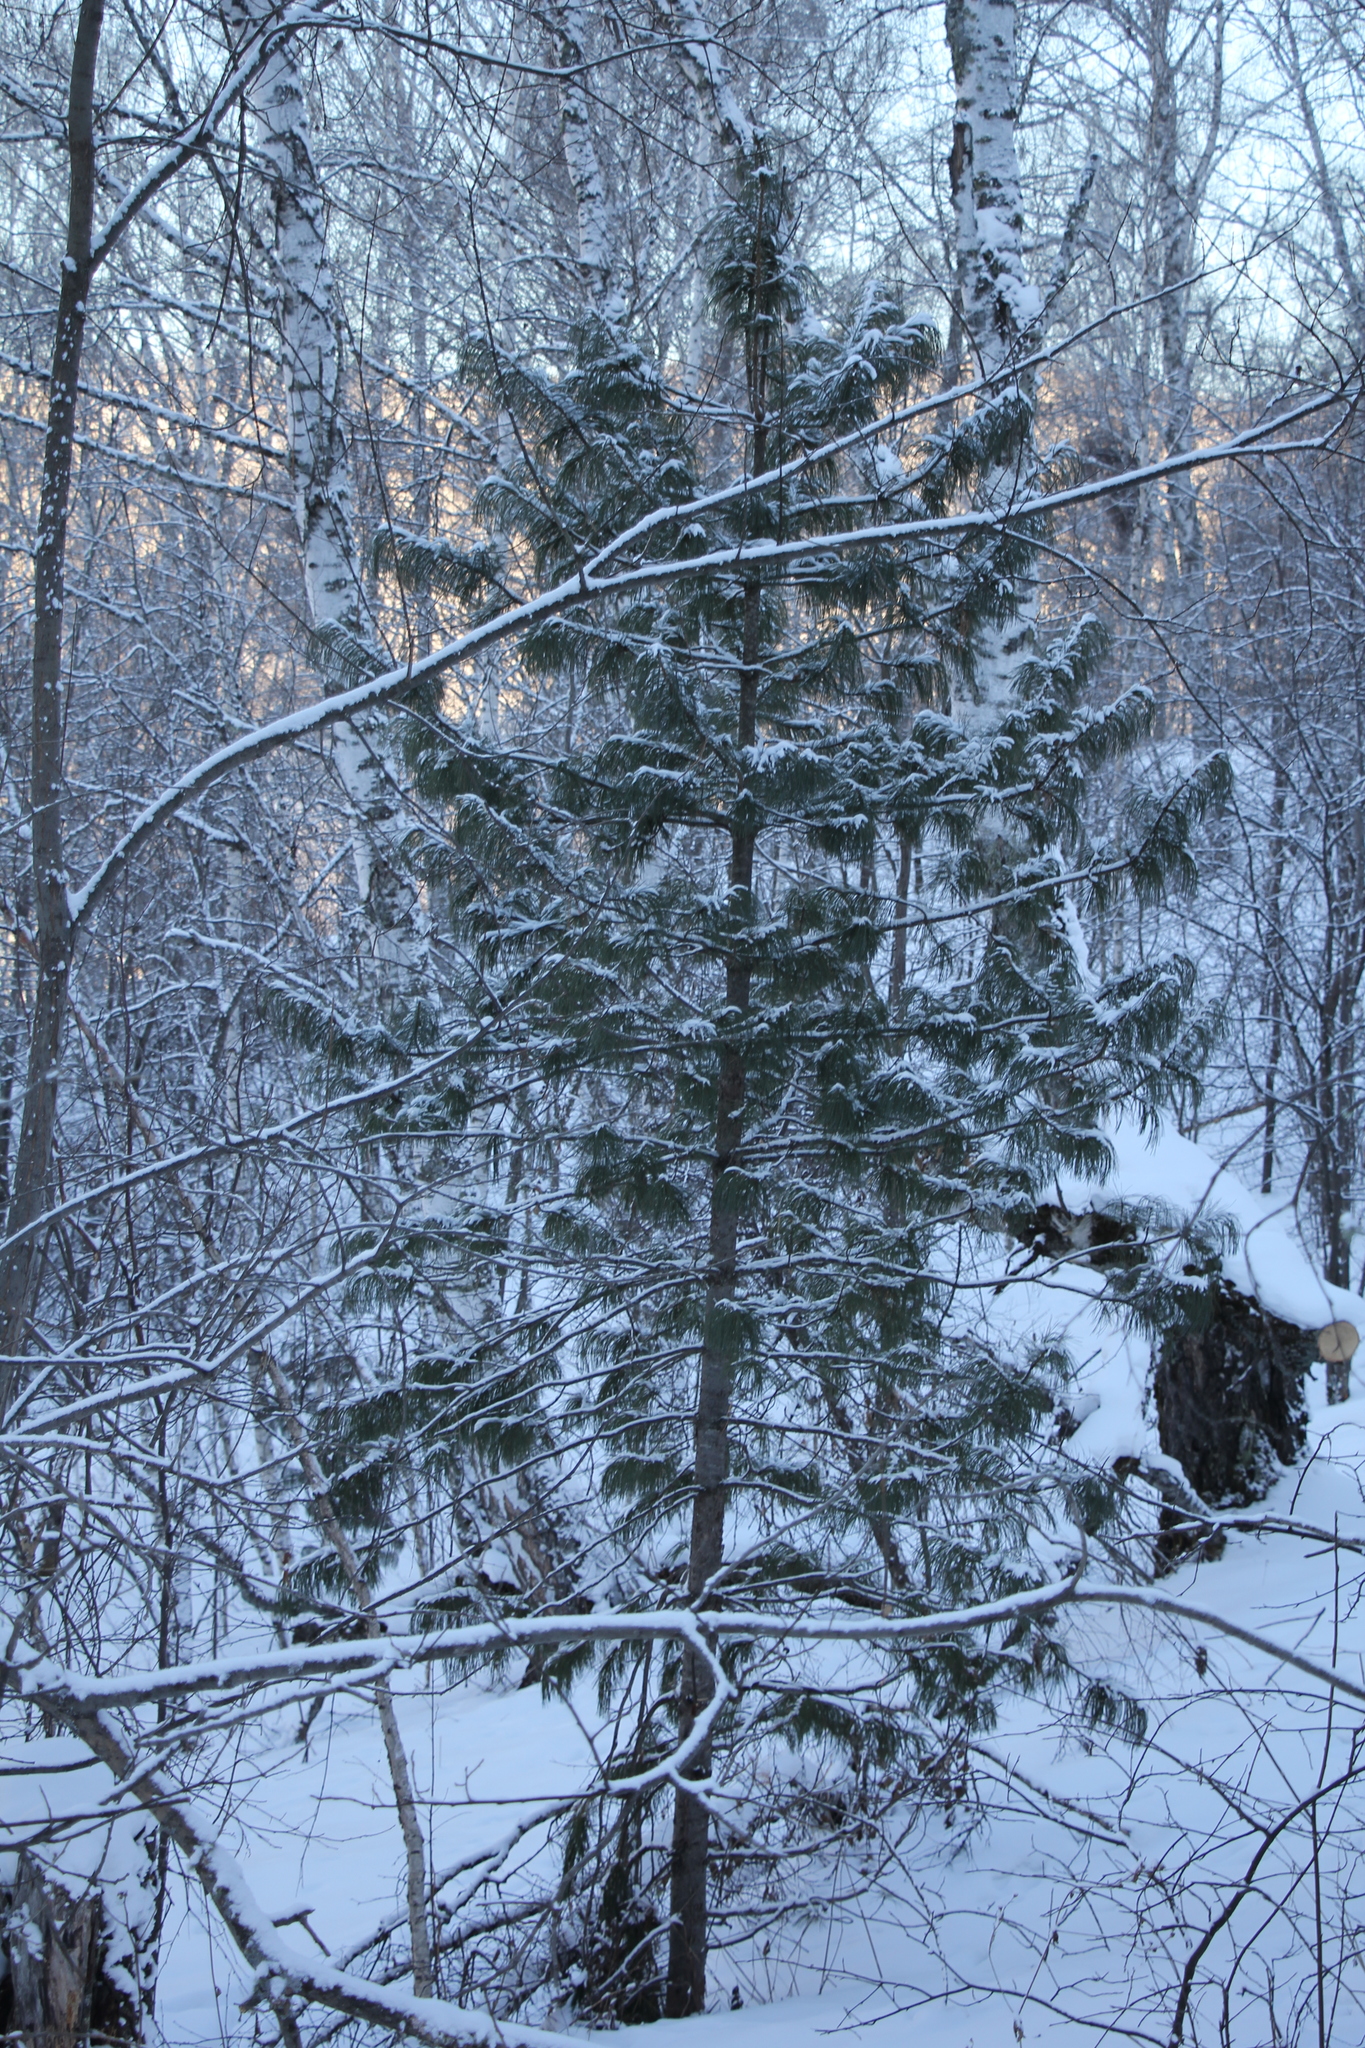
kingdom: Plantae
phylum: Tracheophyta
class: Pinopsida
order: Pinales
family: Pinaceae
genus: Pinus
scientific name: Pinus sibirica
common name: Siberian pine
